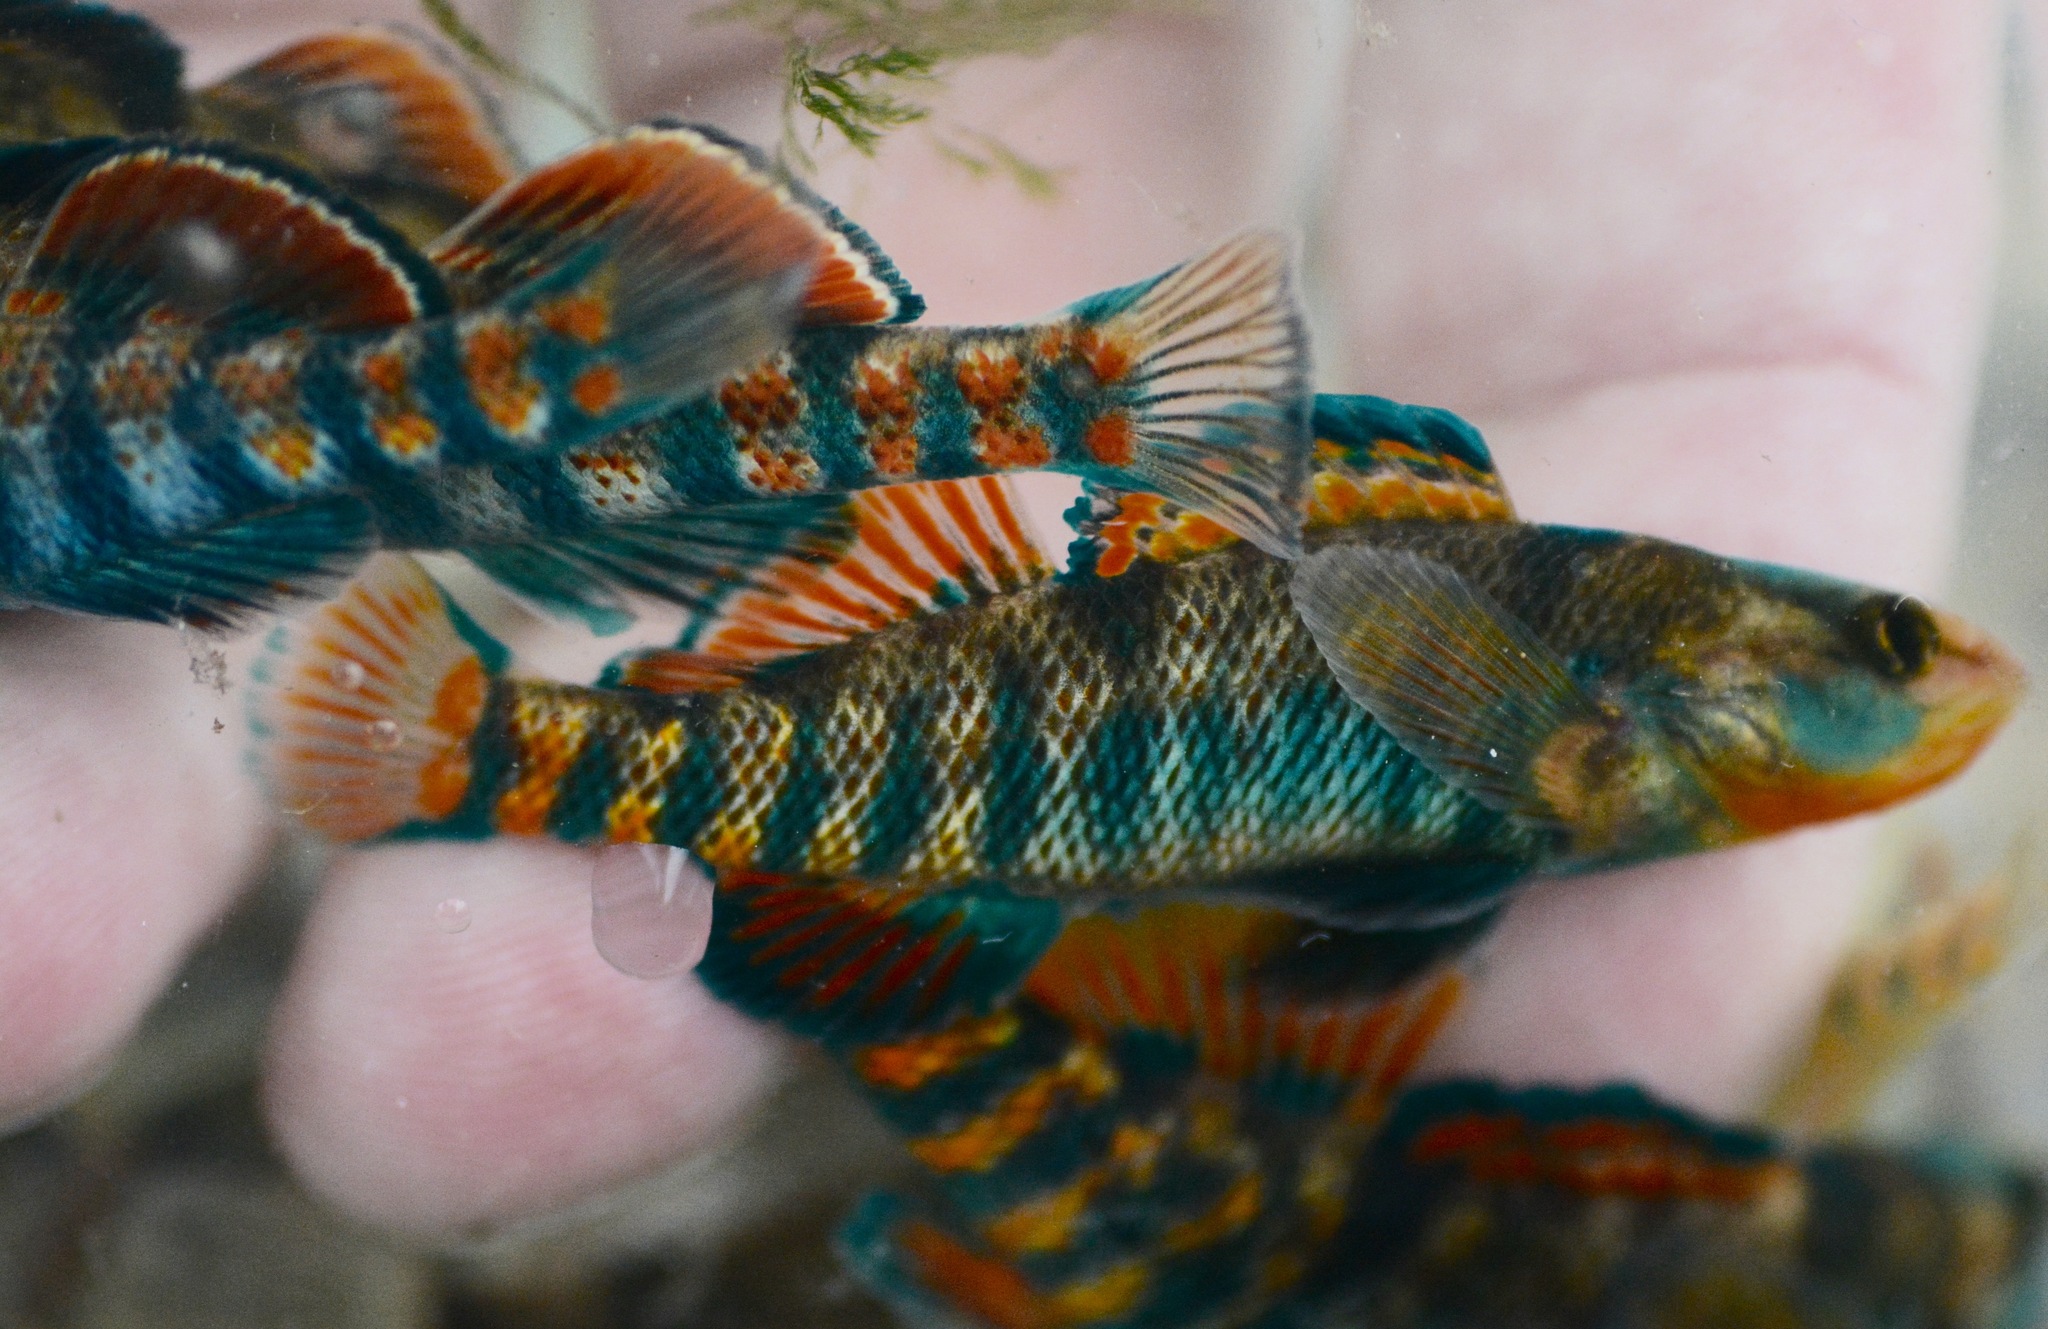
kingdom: Animalia
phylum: Chordata
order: Perciformes
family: Percidae
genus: Etheostoma
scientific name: Etheostoma caeruleum
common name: Rainbow darter
